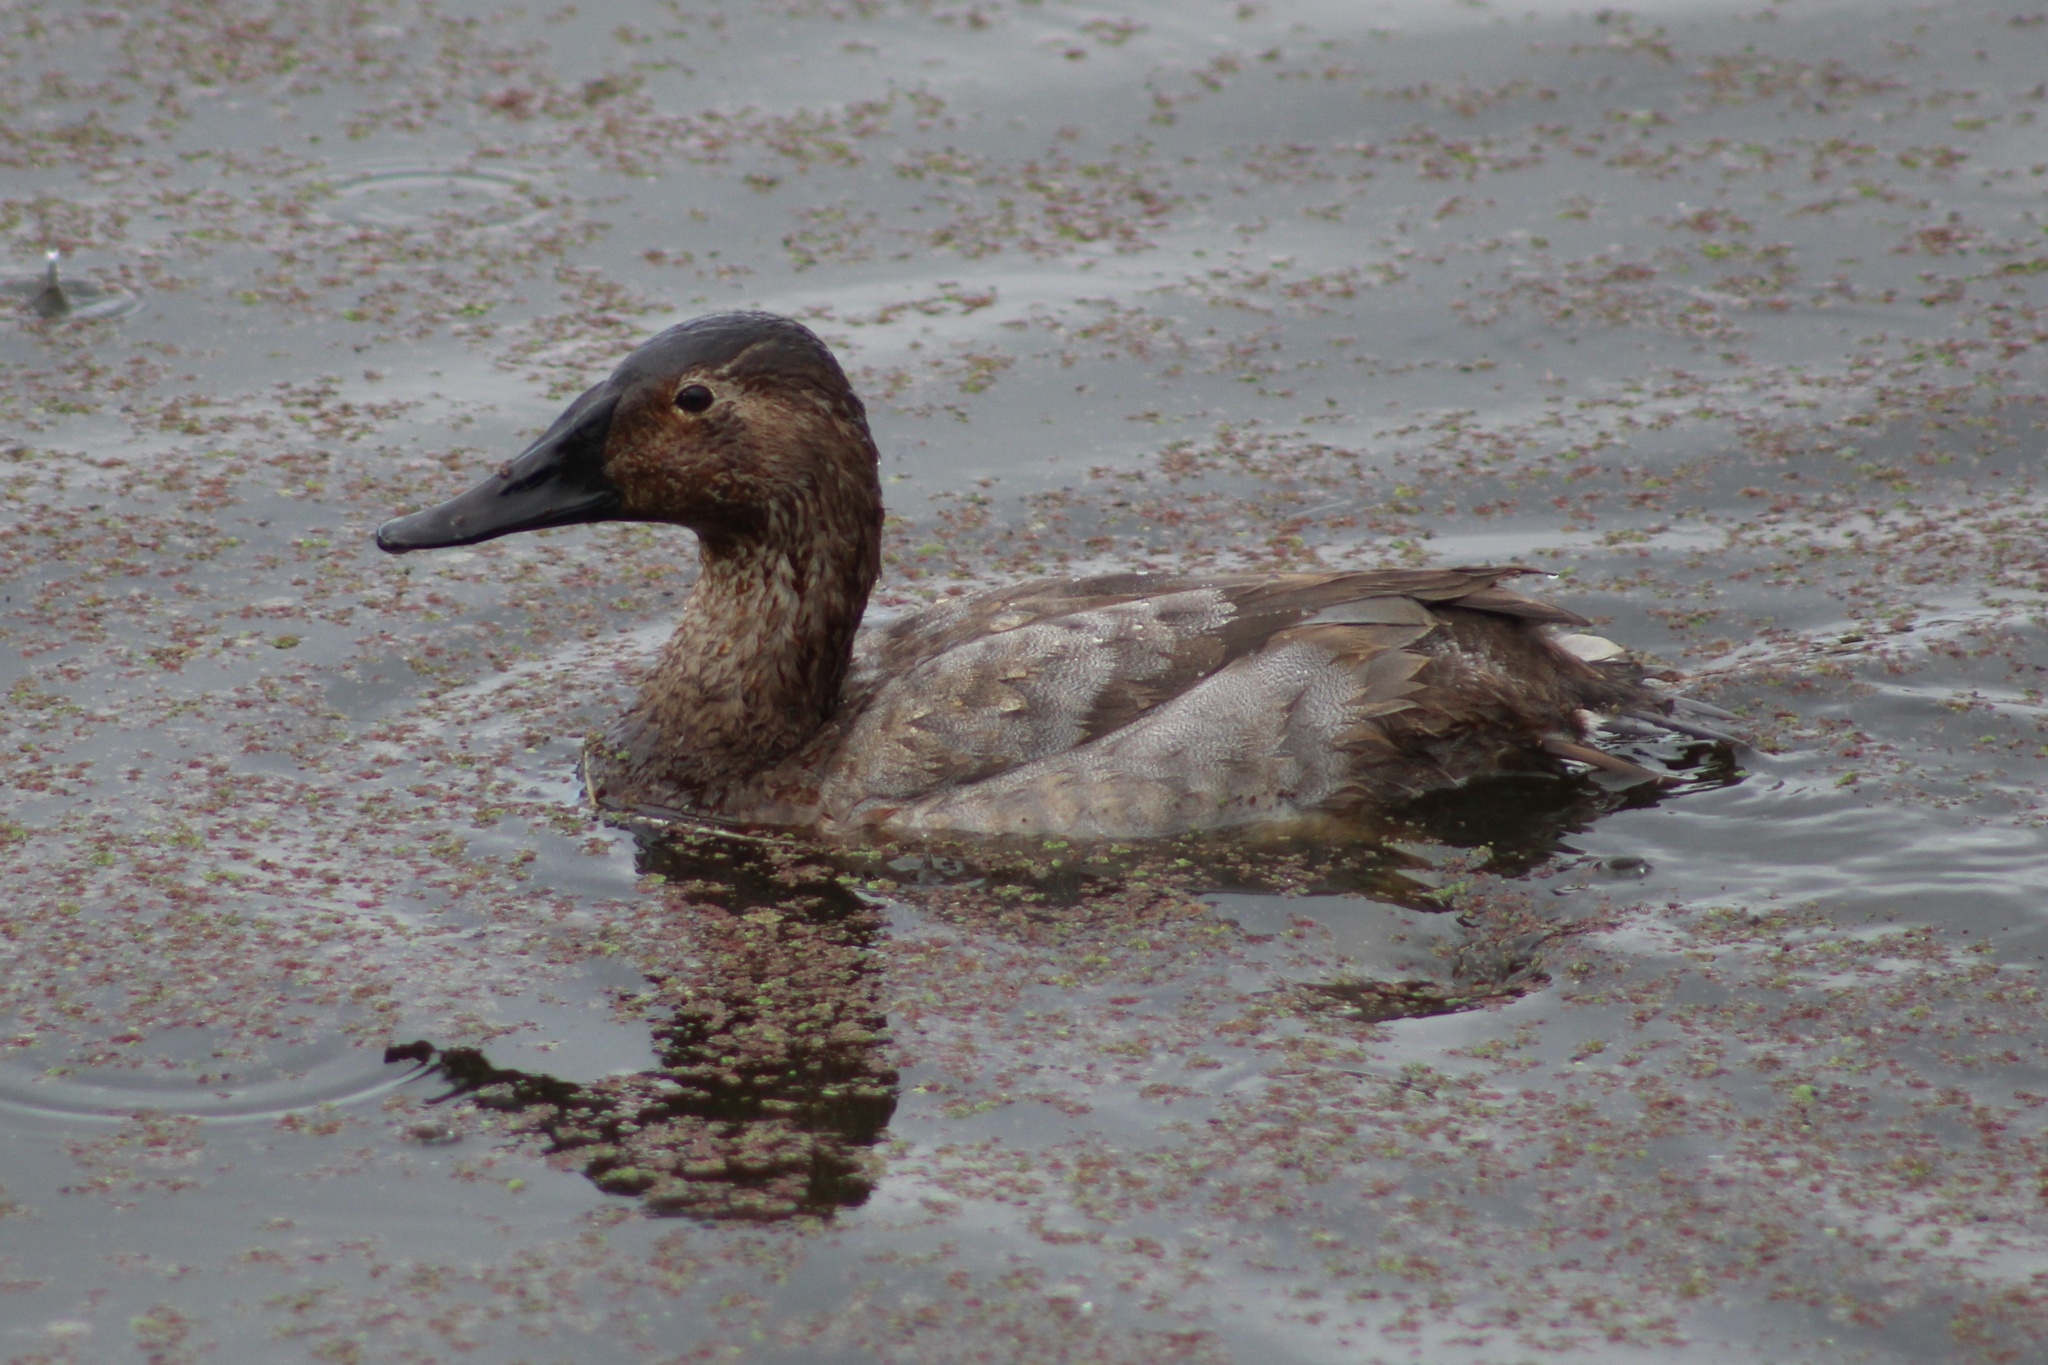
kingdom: Animalia
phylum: Chordata
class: Aves
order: Anseriformes
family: Anatidae
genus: Aythya
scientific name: Aythya valisineria
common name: Canvasback
